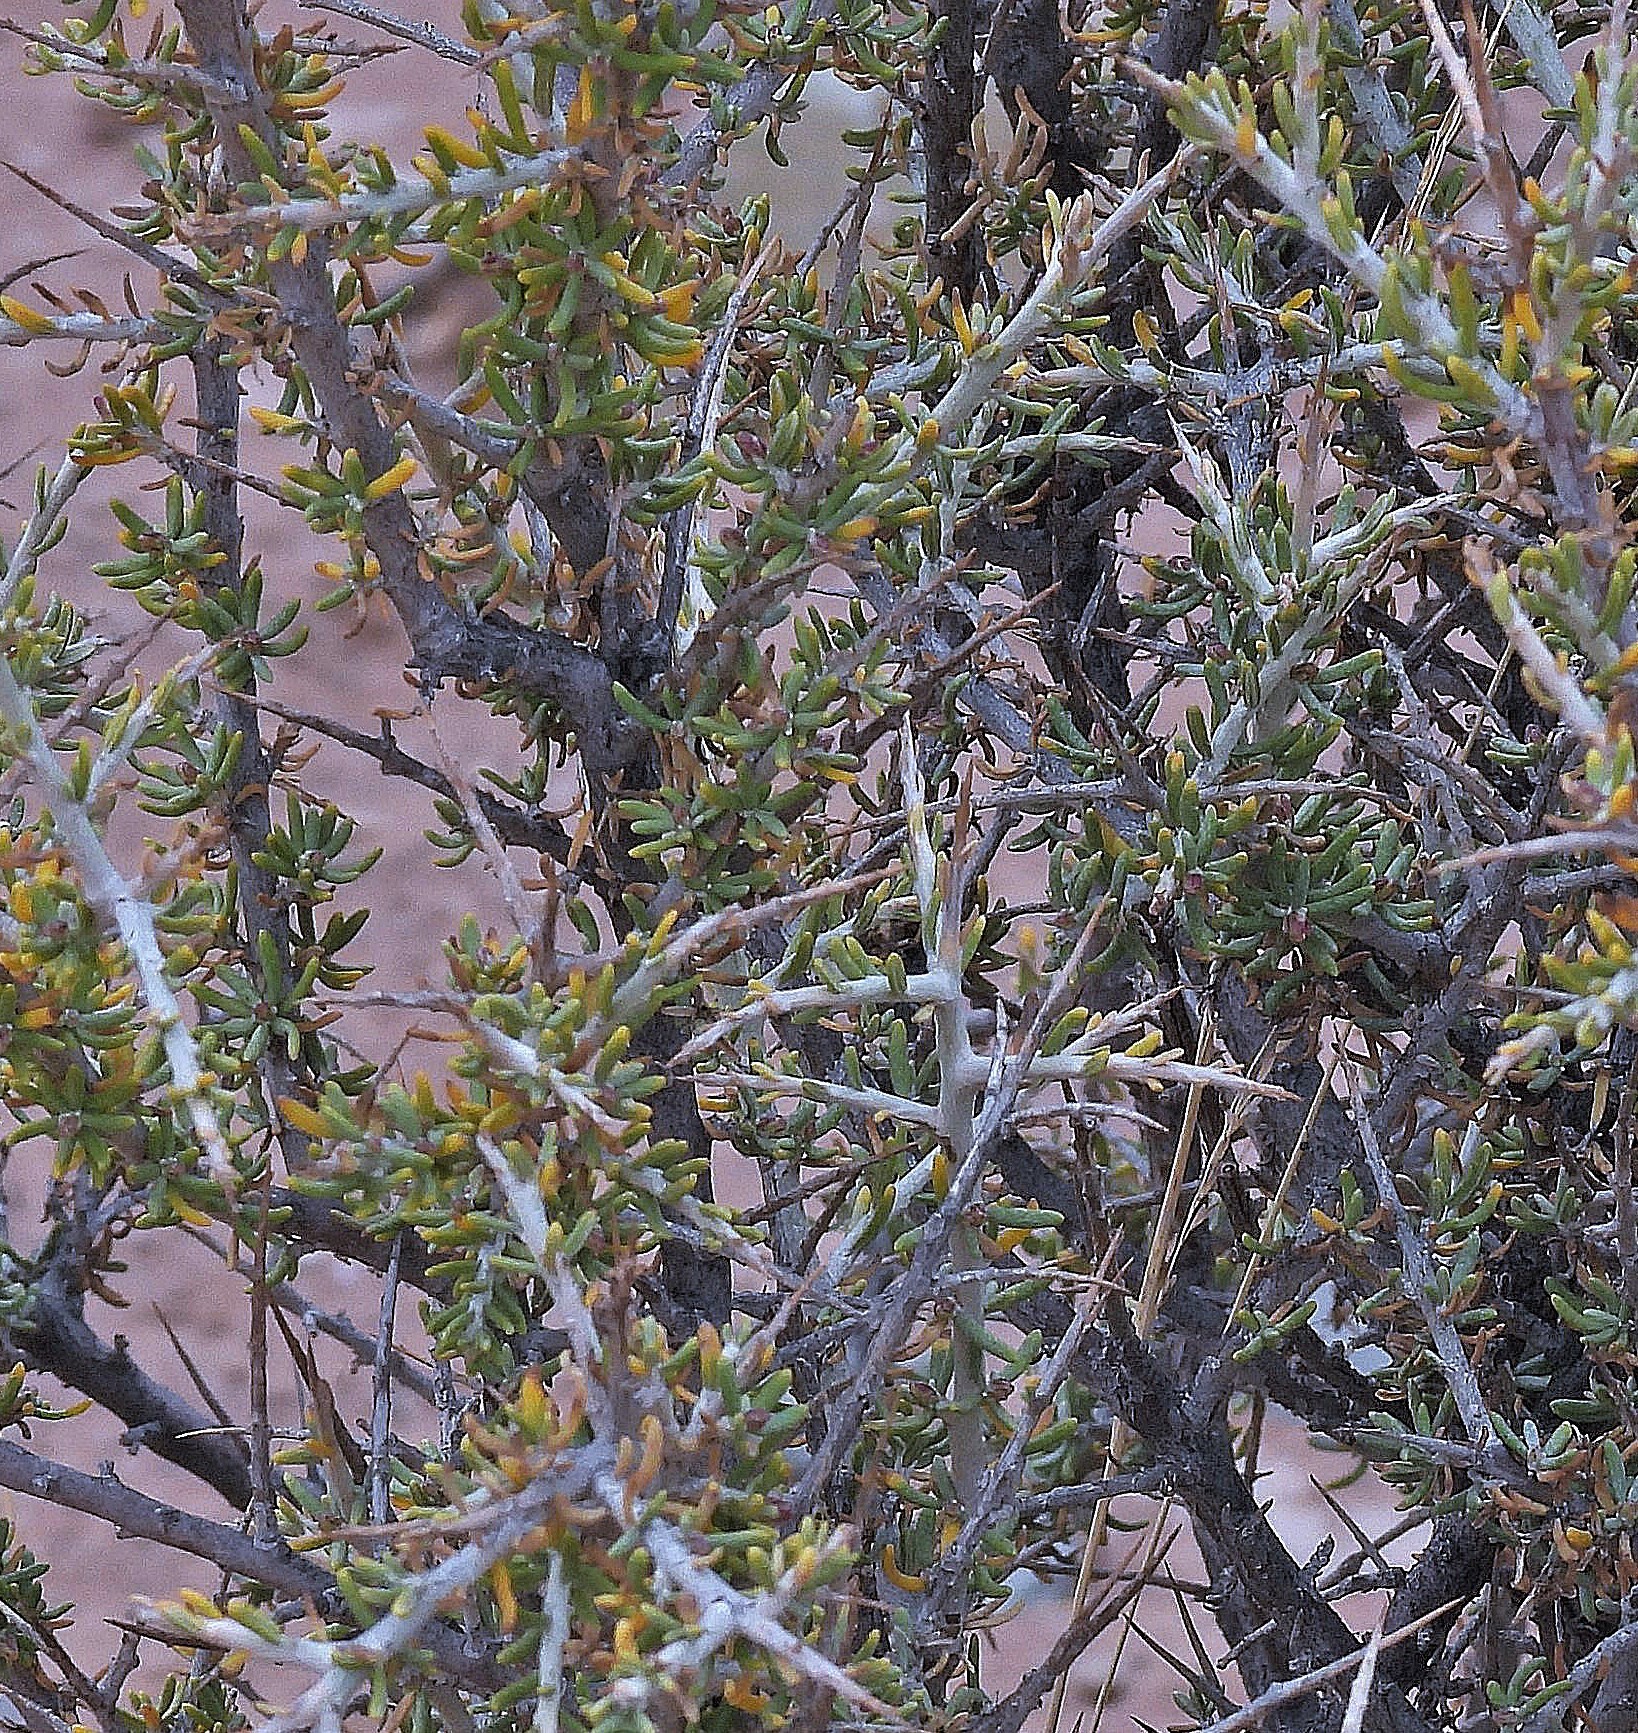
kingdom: Plantae
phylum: Tracheophyta
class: Magnoliopsida
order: Solanales
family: Solanaceae
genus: Lycium
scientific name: Lycium chanar
